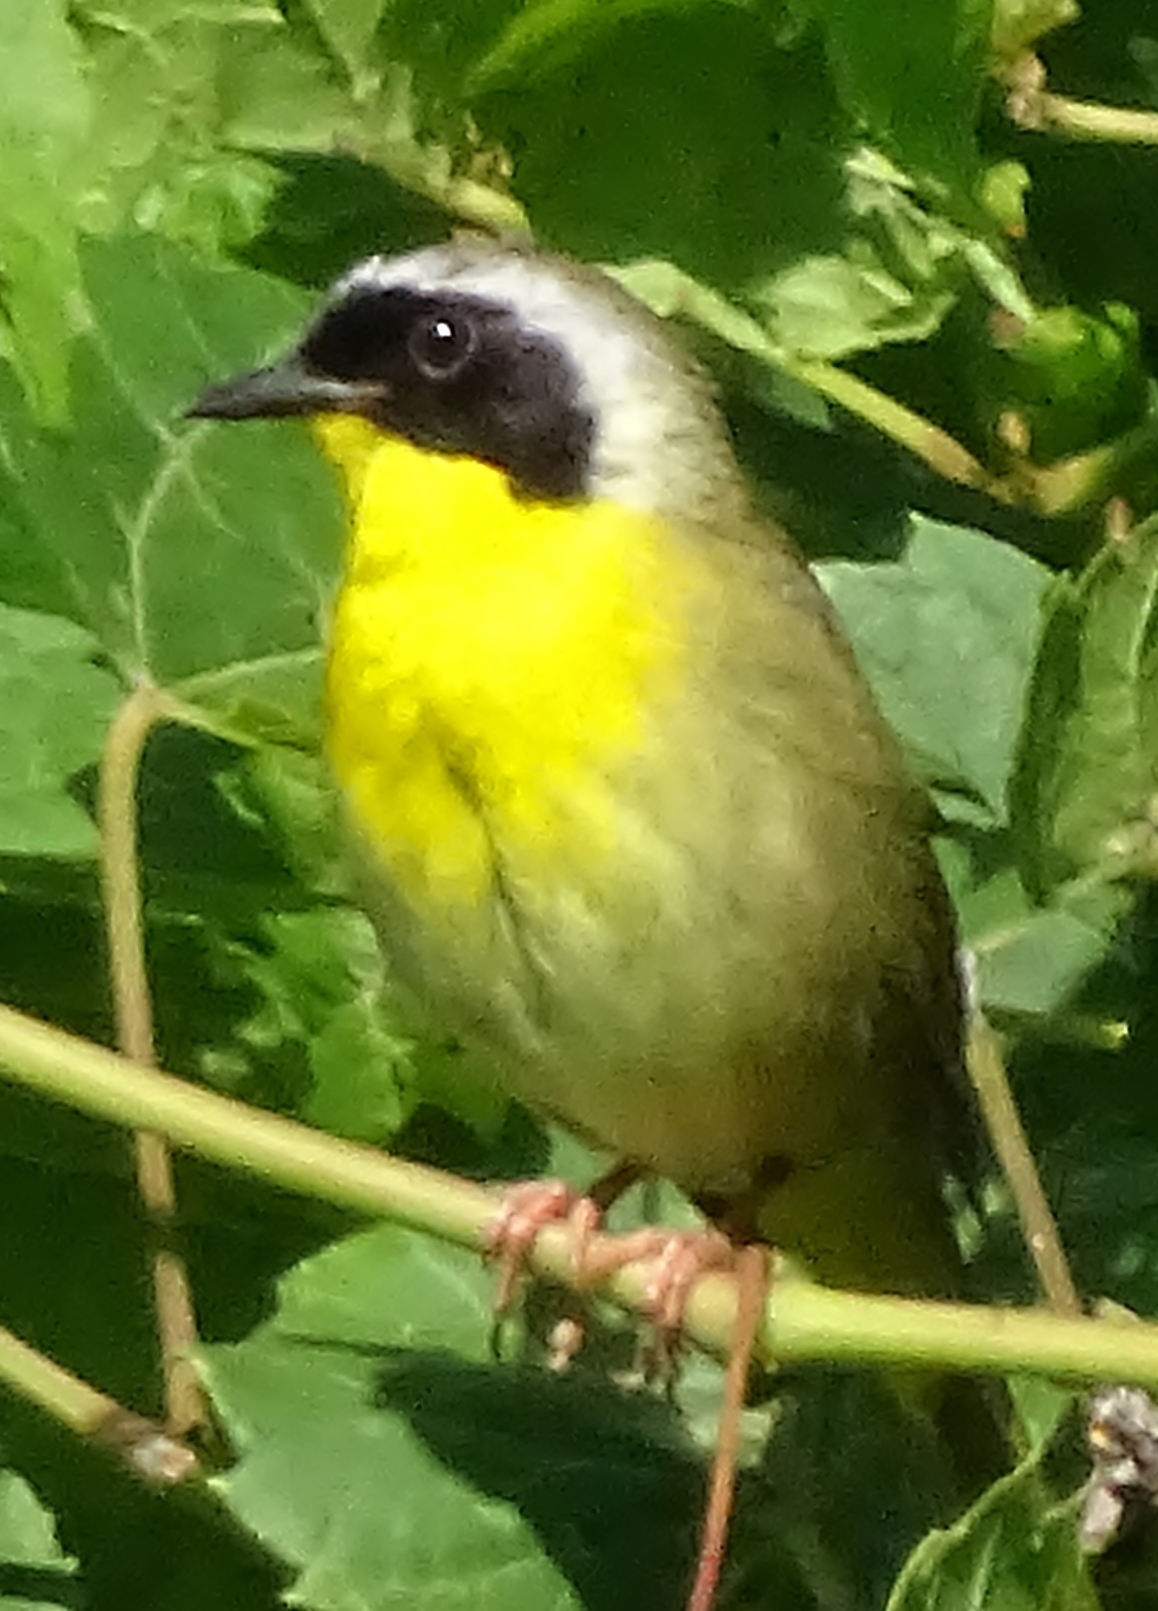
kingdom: Animalia
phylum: Chordata
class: Aves
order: Passeriformes
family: Parulidae
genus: Geothlypis
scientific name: Geothlypis trichas
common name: Common yellowthroat
